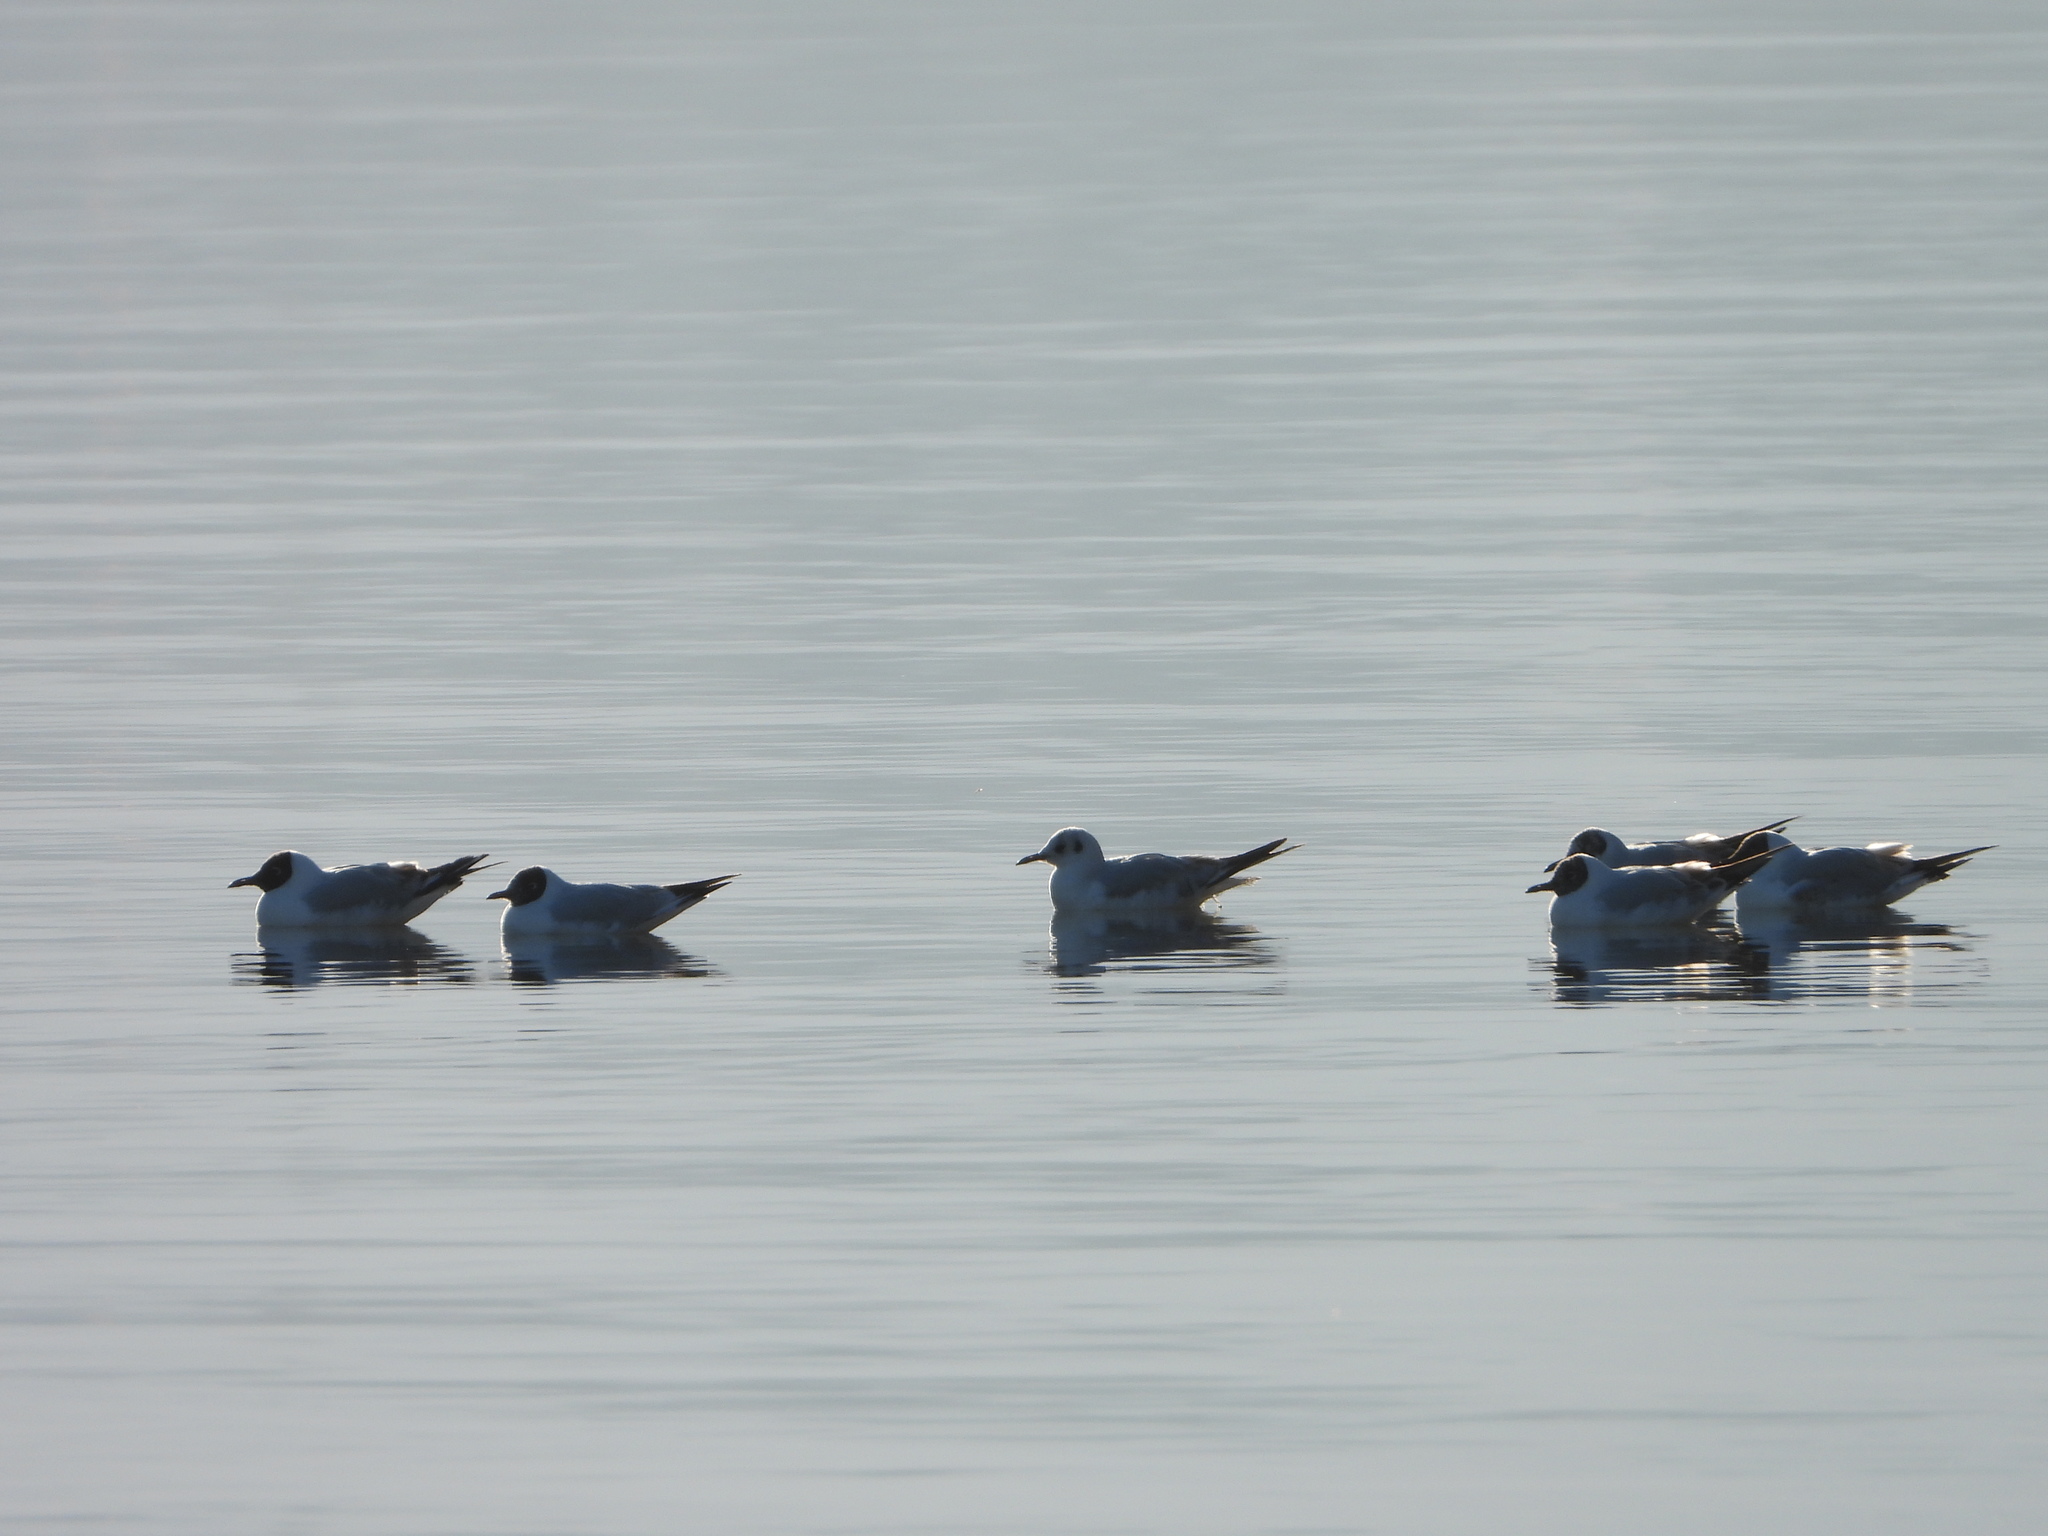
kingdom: Animalia
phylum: Chordata
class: Aves
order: Charadriiformes
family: Laridae
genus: Chroicocephalus
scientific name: Chroicocephalus ridibundus
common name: Black-headed gull
